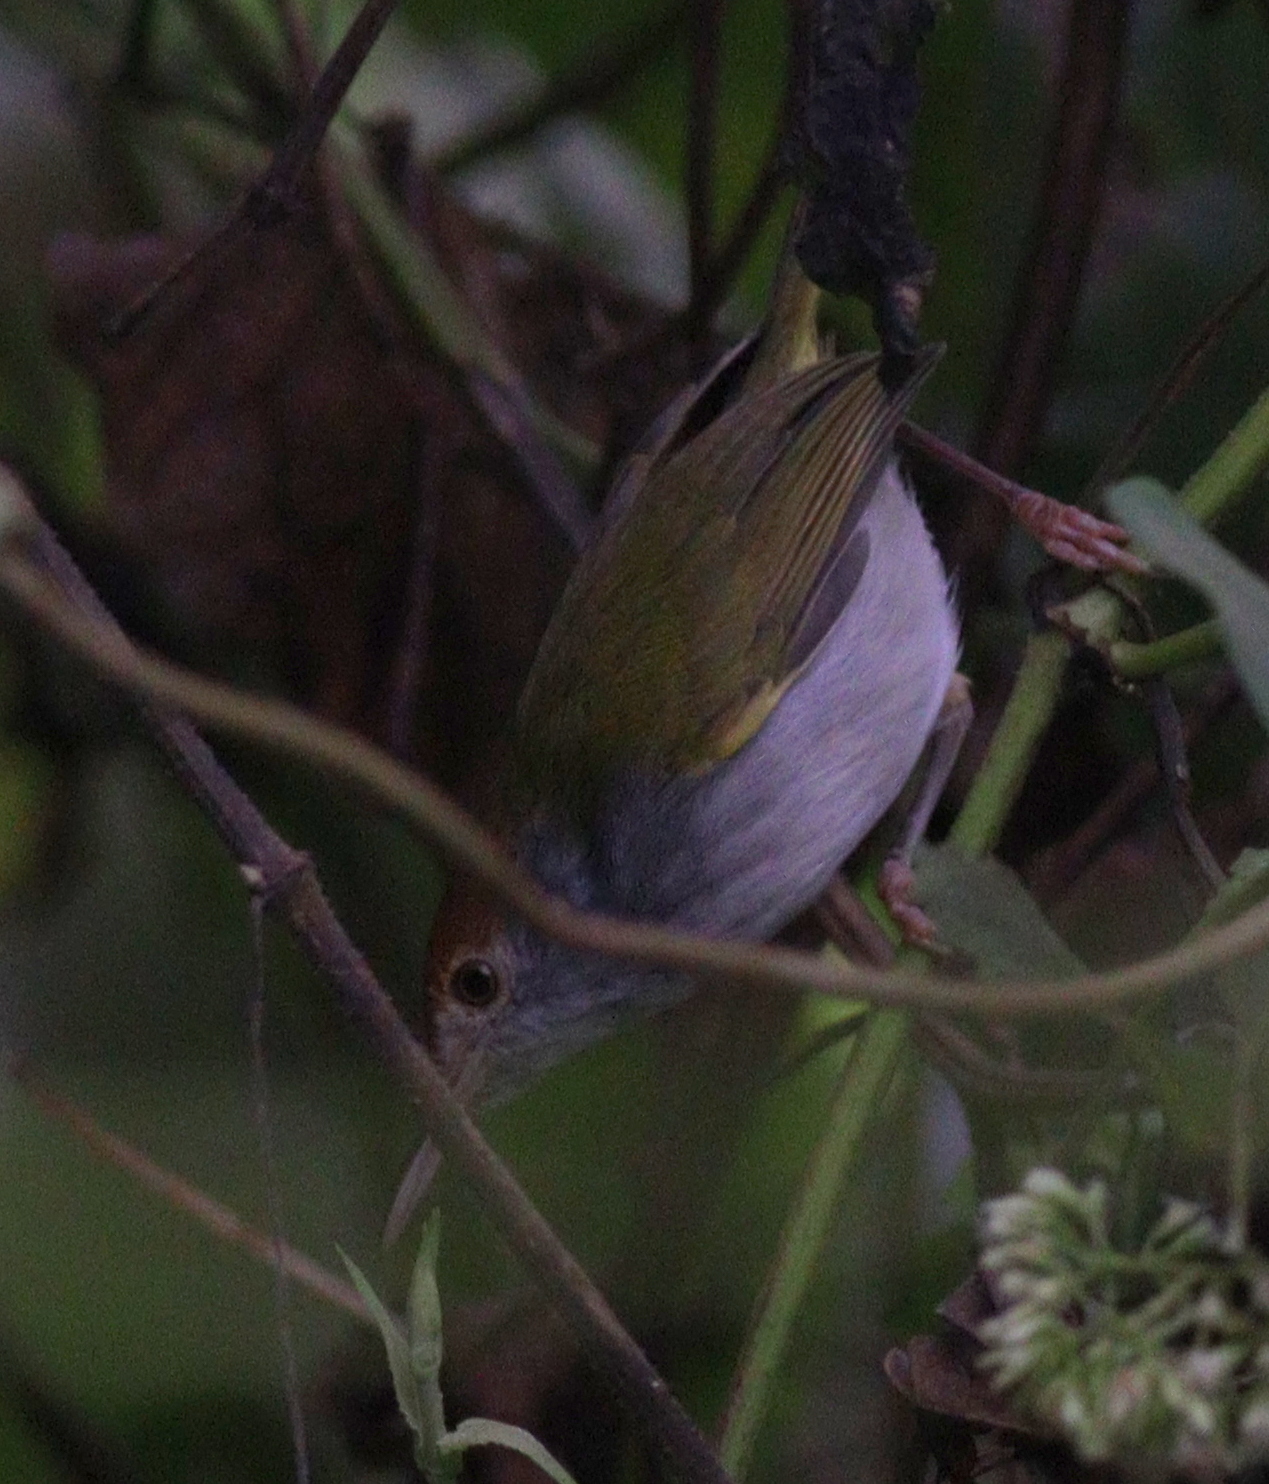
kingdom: Animalia
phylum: Chordata
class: Aves
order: Passeriformes
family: Cisticolidae
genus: Orthotomus
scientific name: Orthotomus atrogularis
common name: Dark-necked tailorbird
